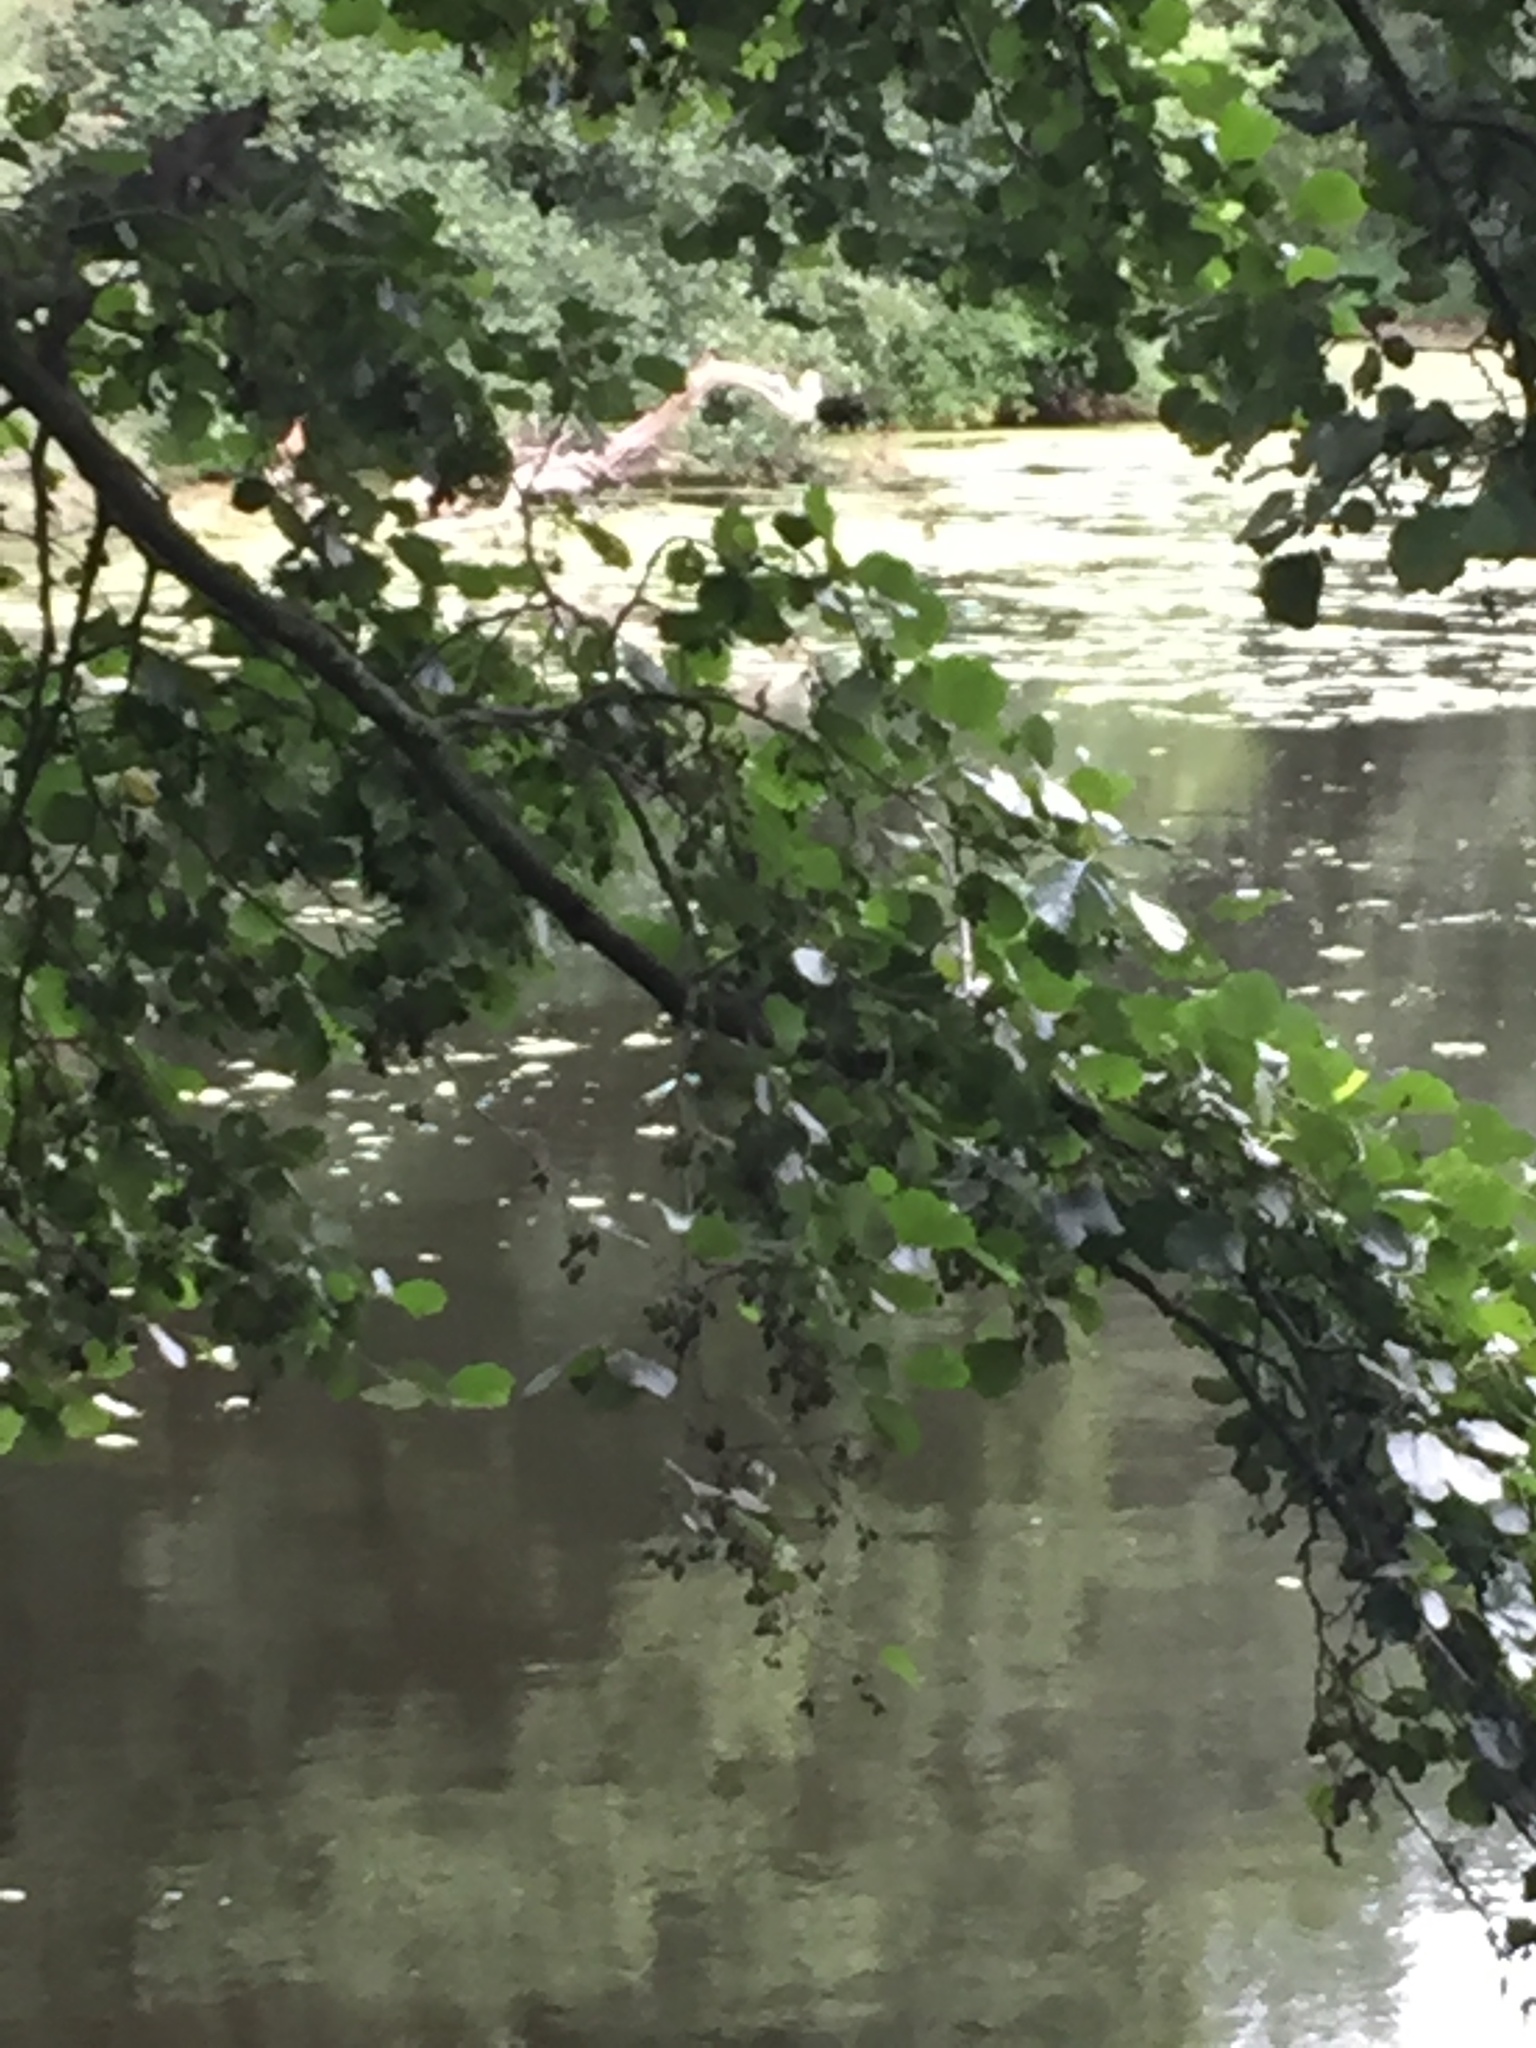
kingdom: Plantae
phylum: Tracheophyta
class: Magnoliopsida
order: Fagales
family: Betulaceae
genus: Alnus
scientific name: Alnus glutinosa
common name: Black alder
